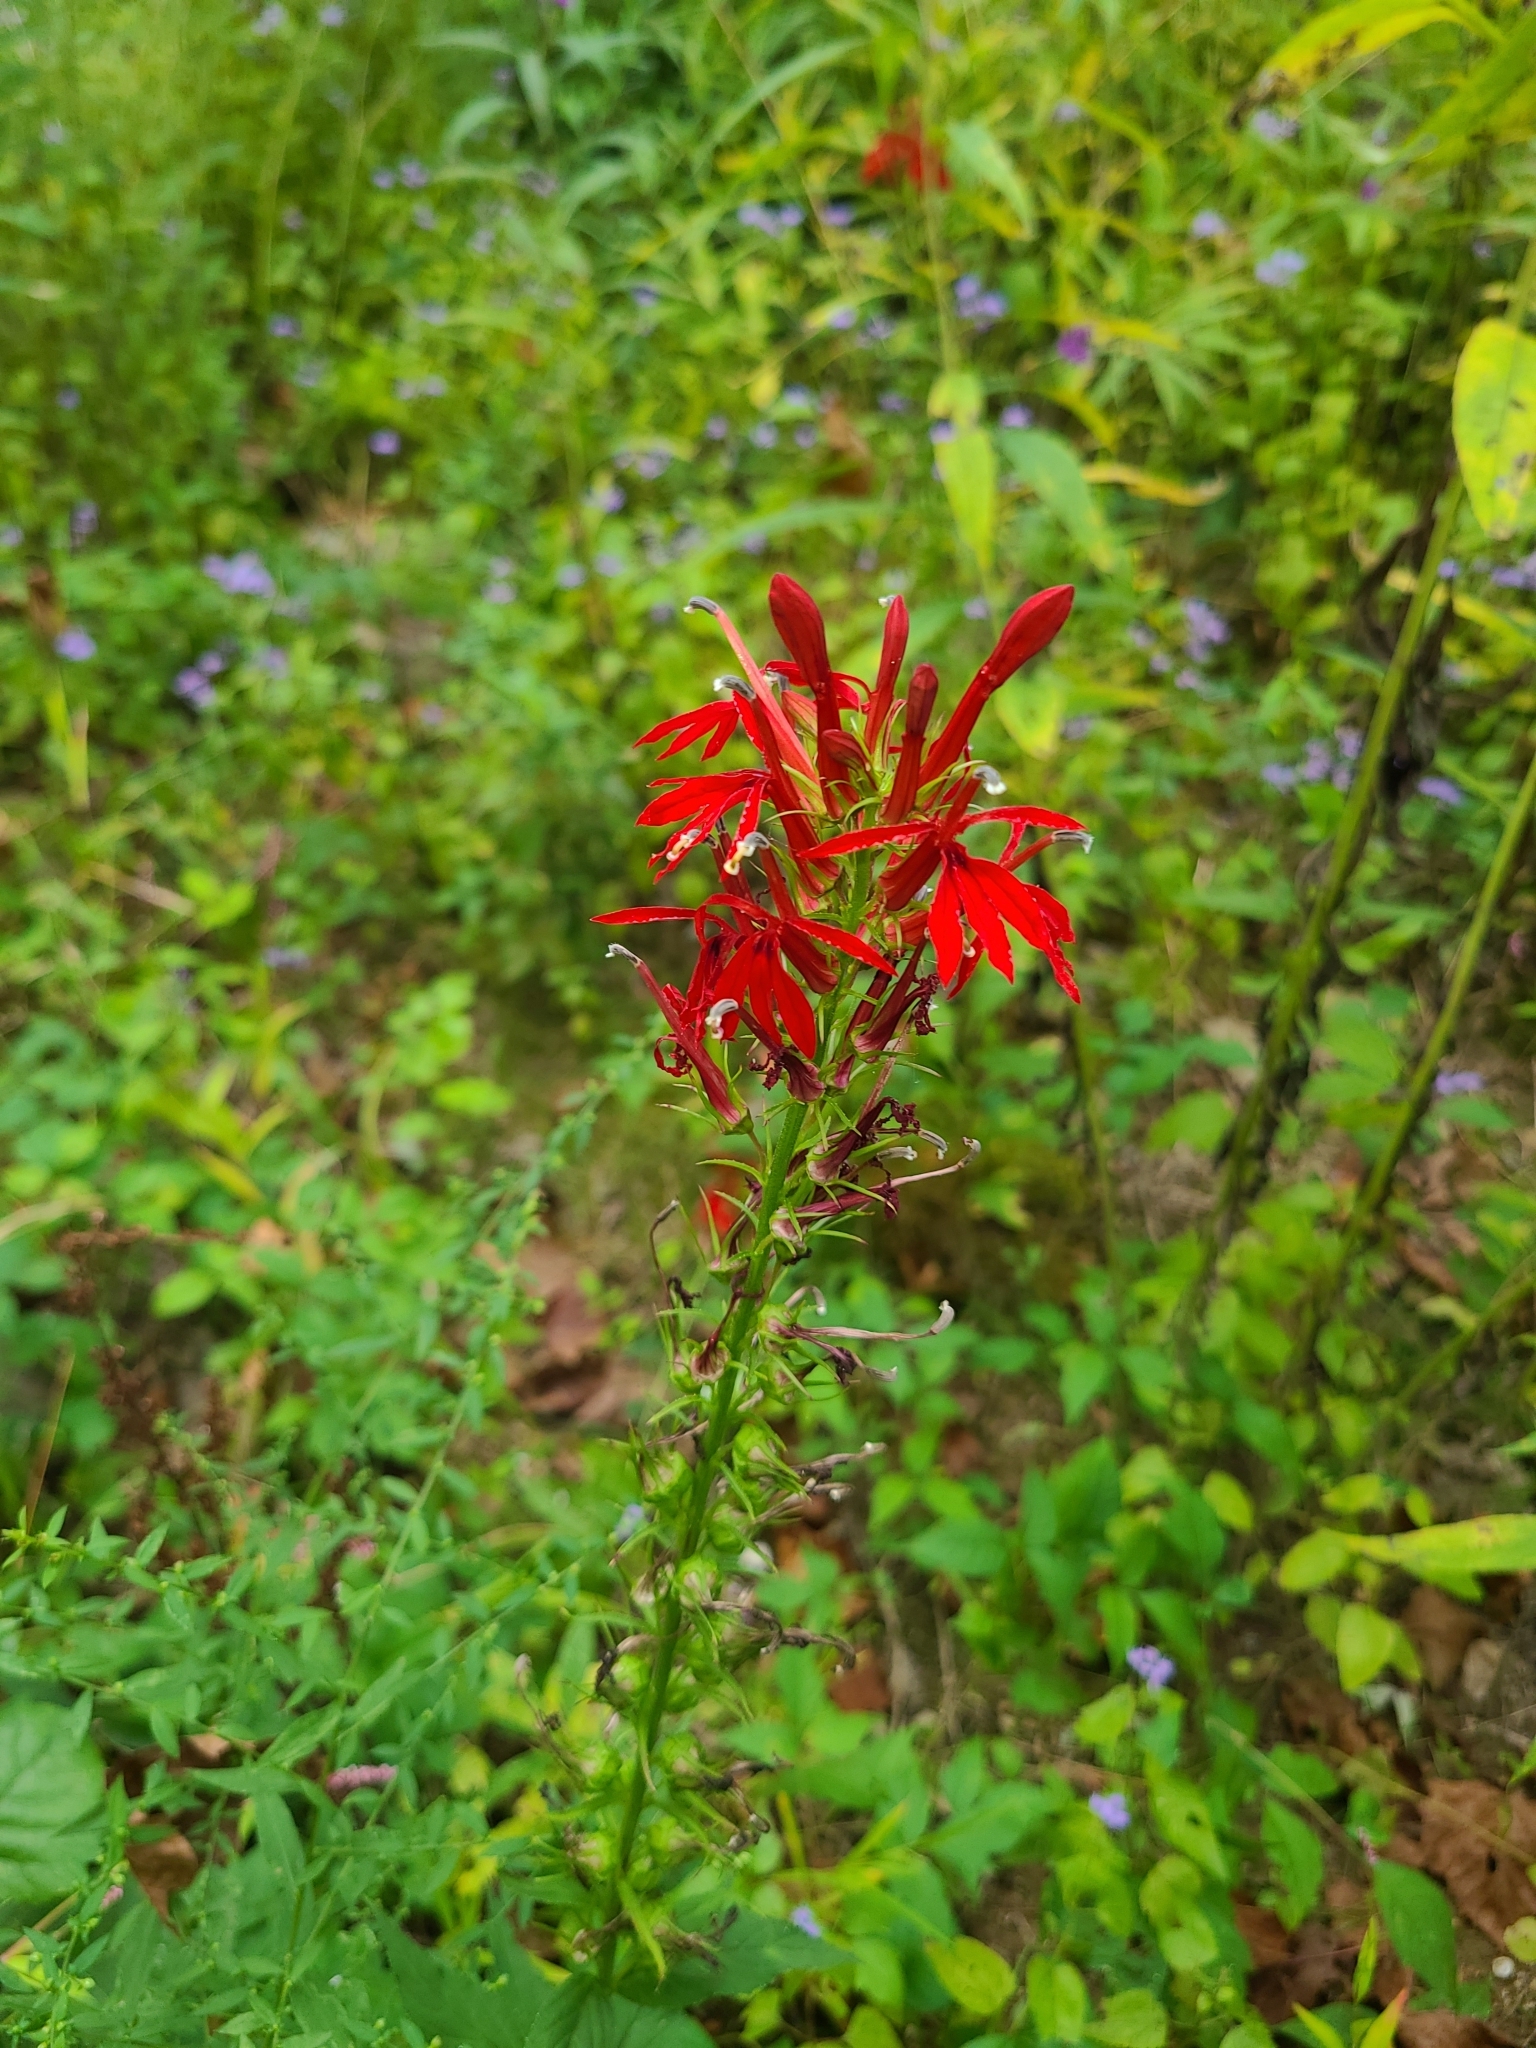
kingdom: Plantae
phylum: Tracheophyta
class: Magnoliopsida
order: Asterales
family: Campanulaceae
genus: Lobelia
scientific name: Lobelia cardinalis
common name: Cardinal flower
